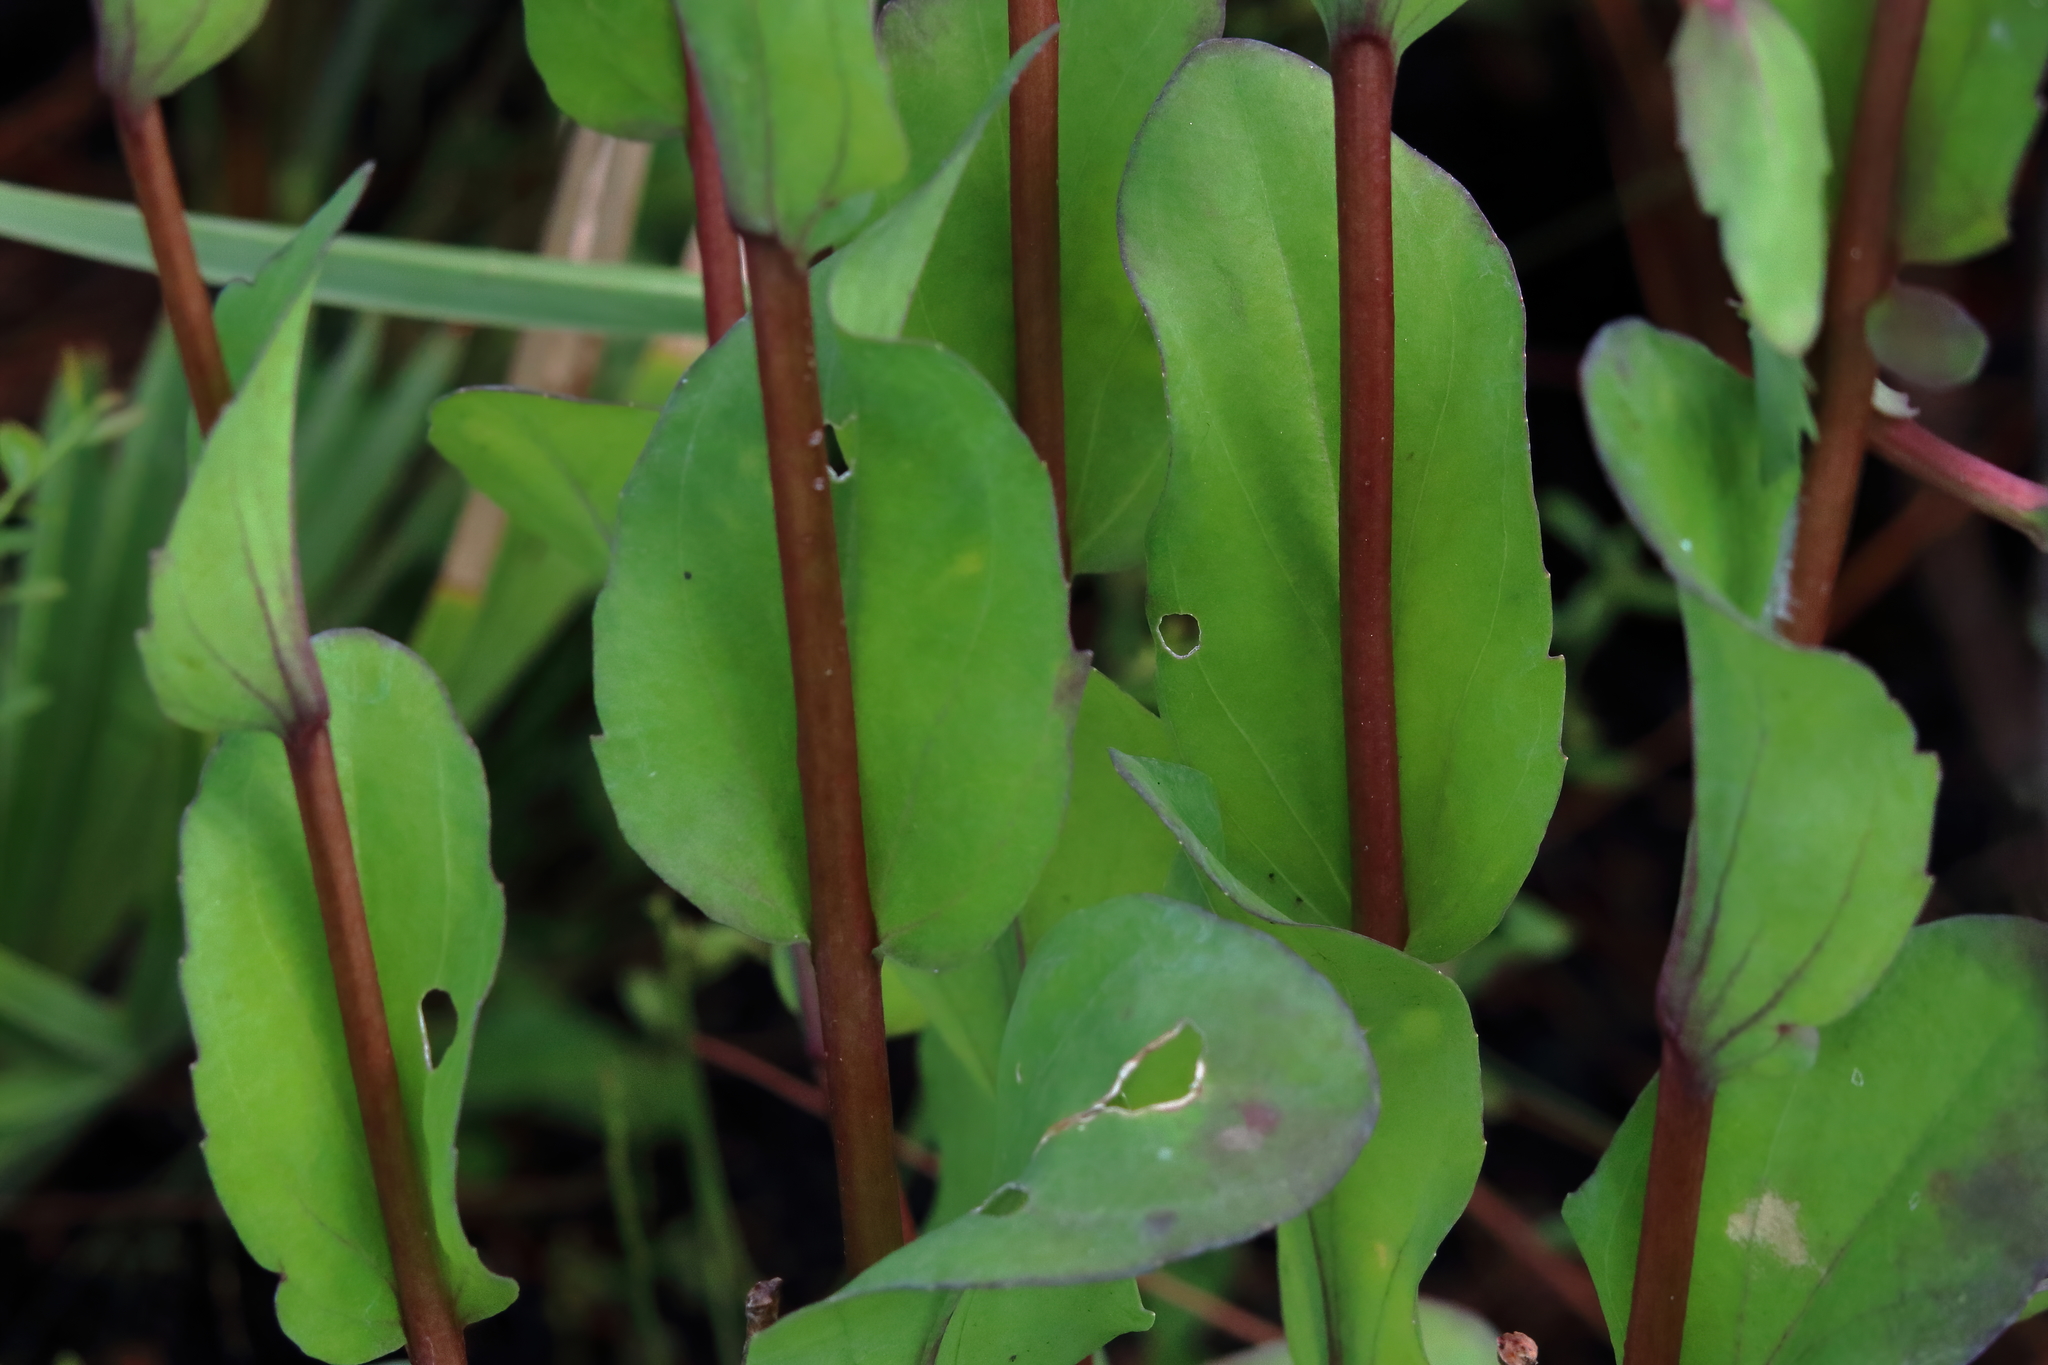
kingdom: Plantae
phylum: Tracheophyta
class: Magnoliopsida
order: Asterales
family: Asteraceae
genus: Carphephorus
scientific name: Carphephorus odoratissimus
